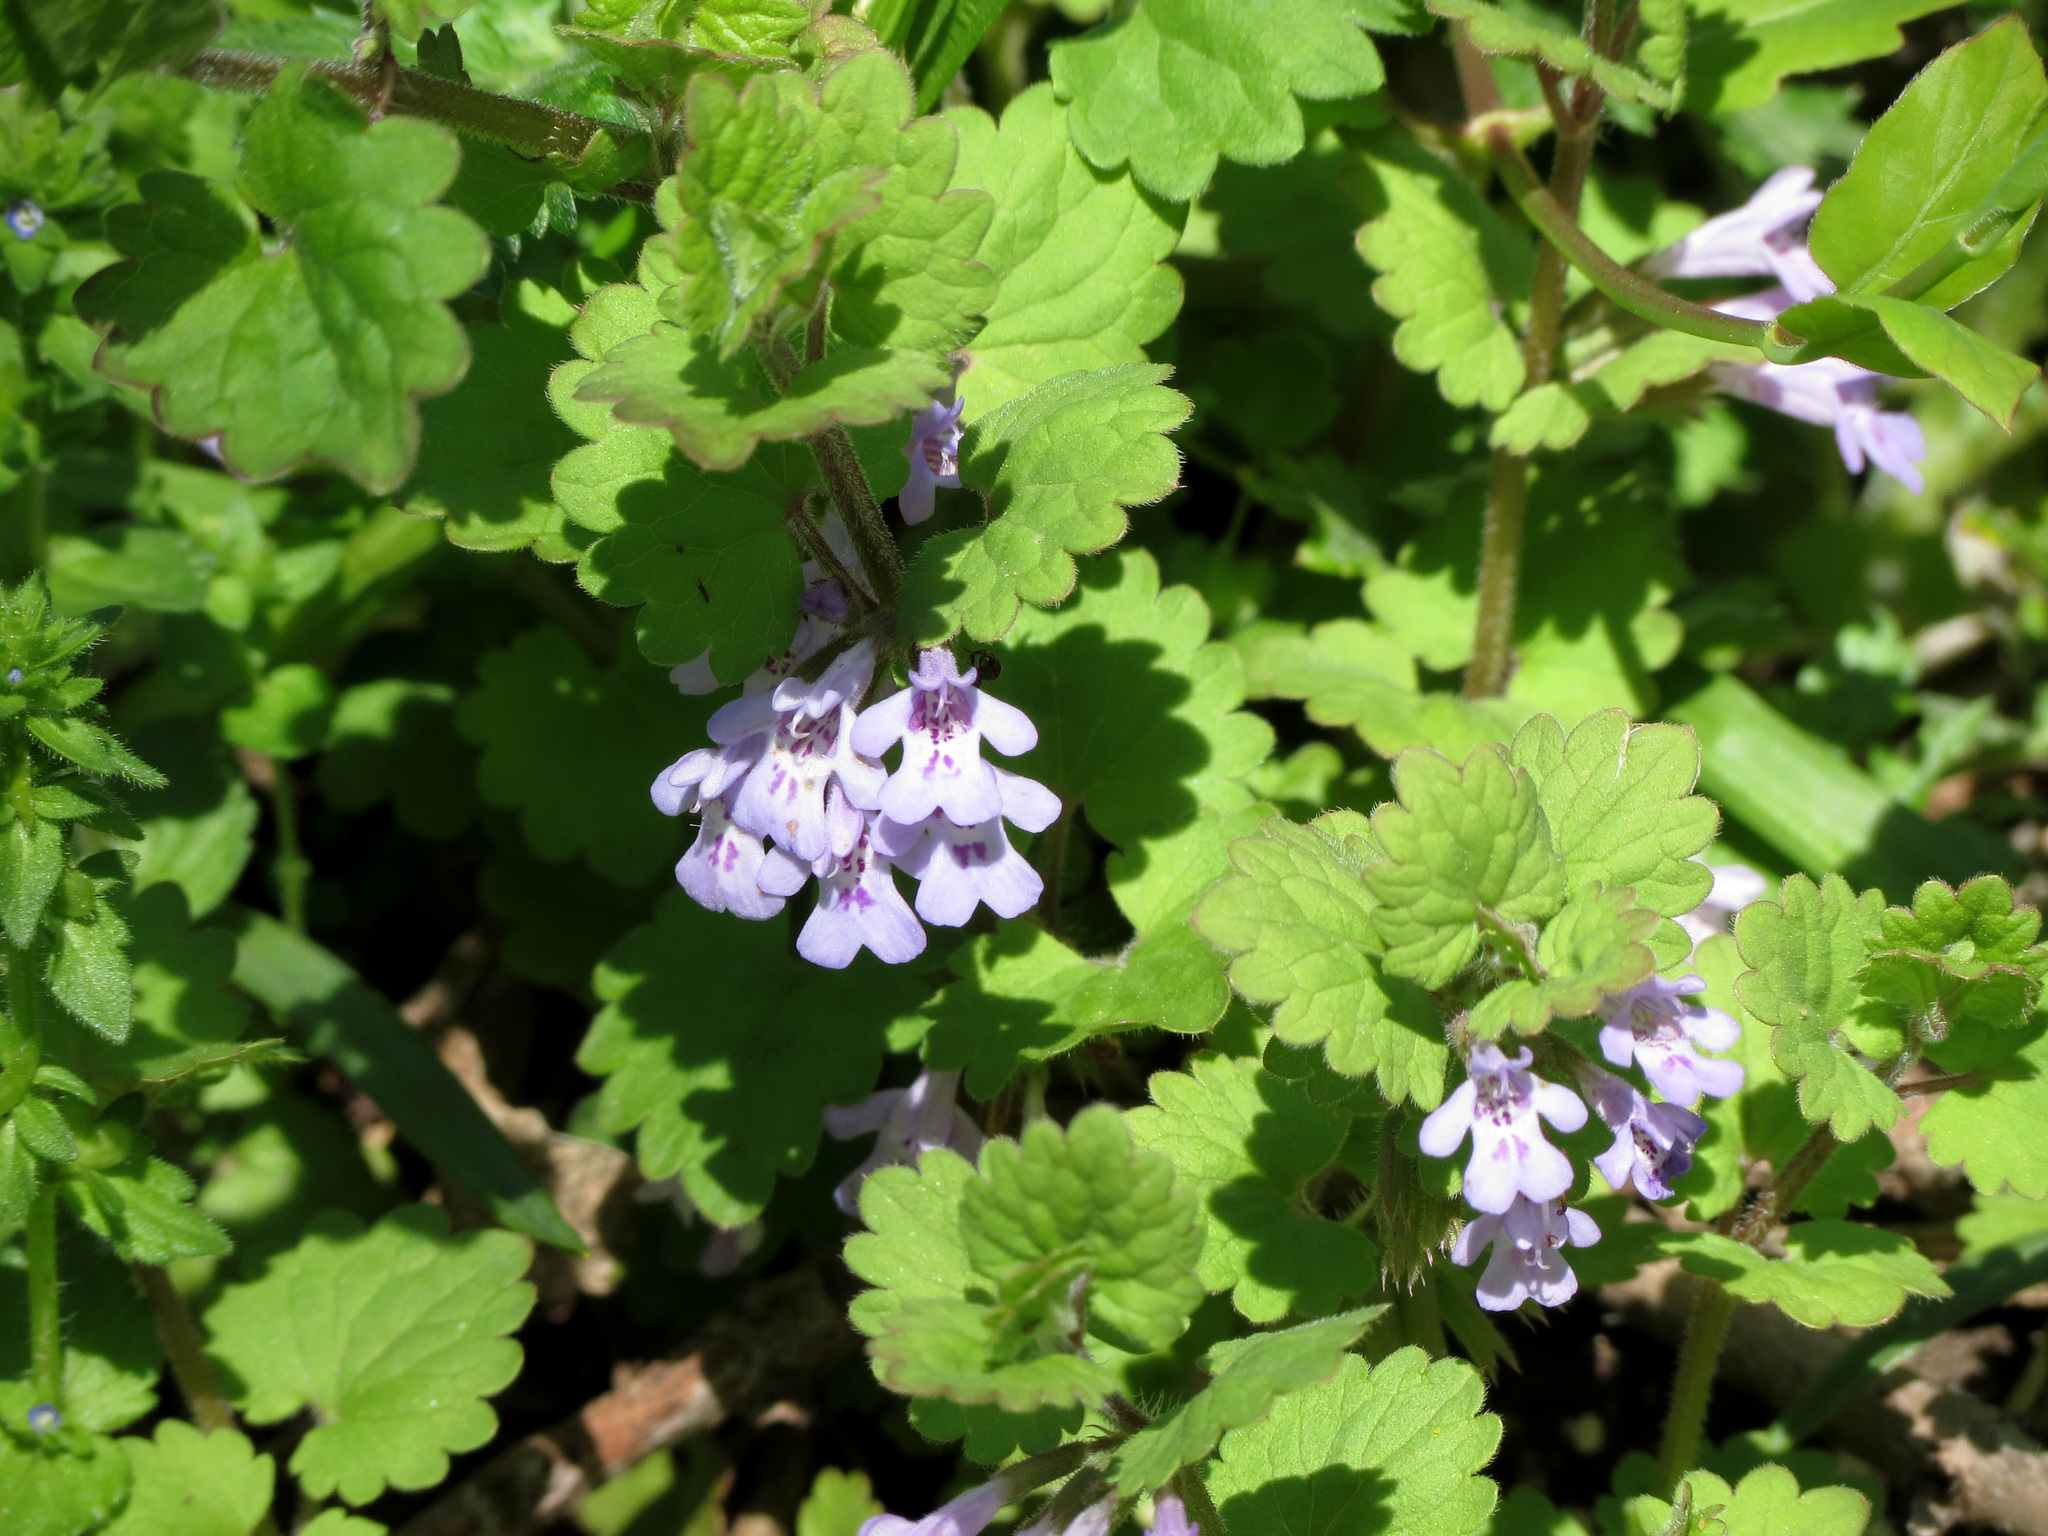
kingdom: Plantae
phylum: Tracheophyta
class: Magnoliopsida
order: Lamiales
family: Lamiaceae
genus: Glechoma
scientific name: Glechoma hederacea
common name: Ground ivy
